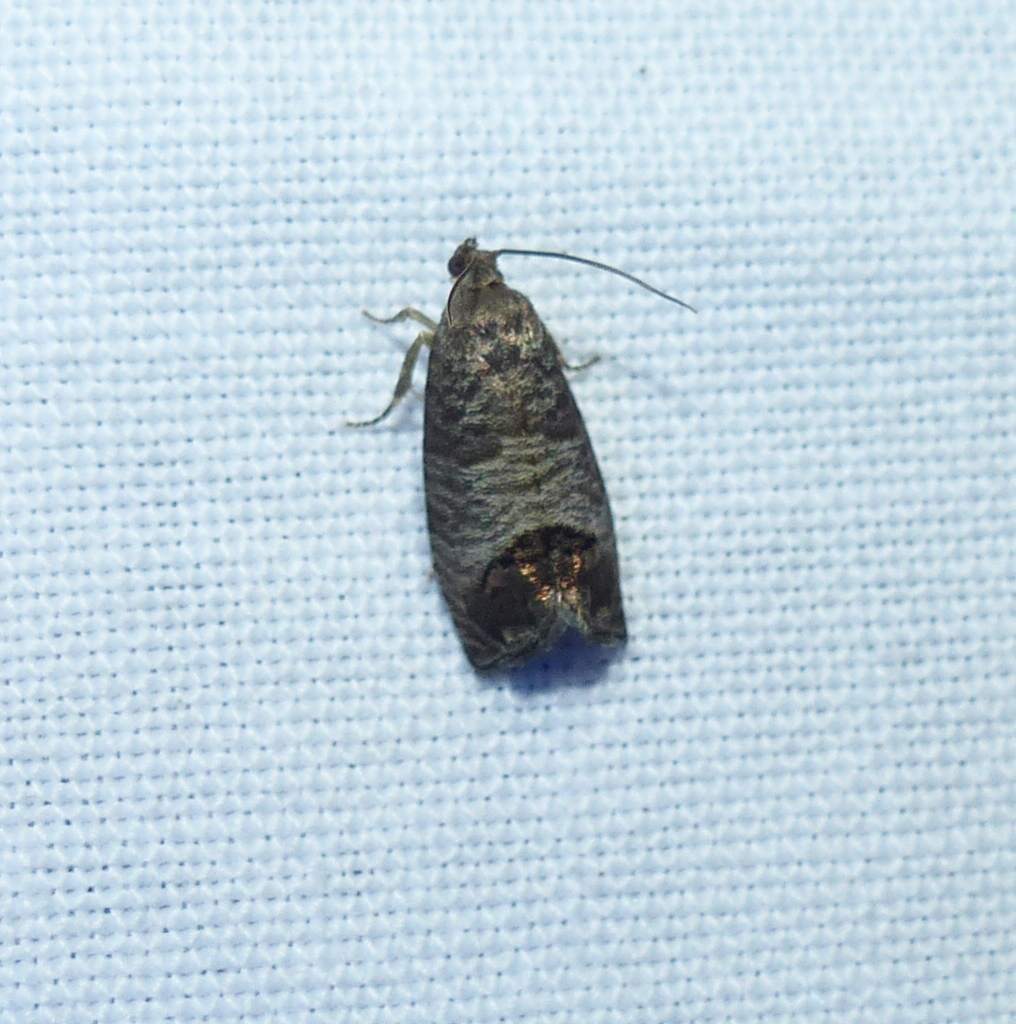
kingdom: Animalia
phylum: Arthropoda
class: Insecta
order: Lepidoptera
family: Tortricidae
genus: Cydia
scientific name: Cydia pomonella
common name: Codling moth
